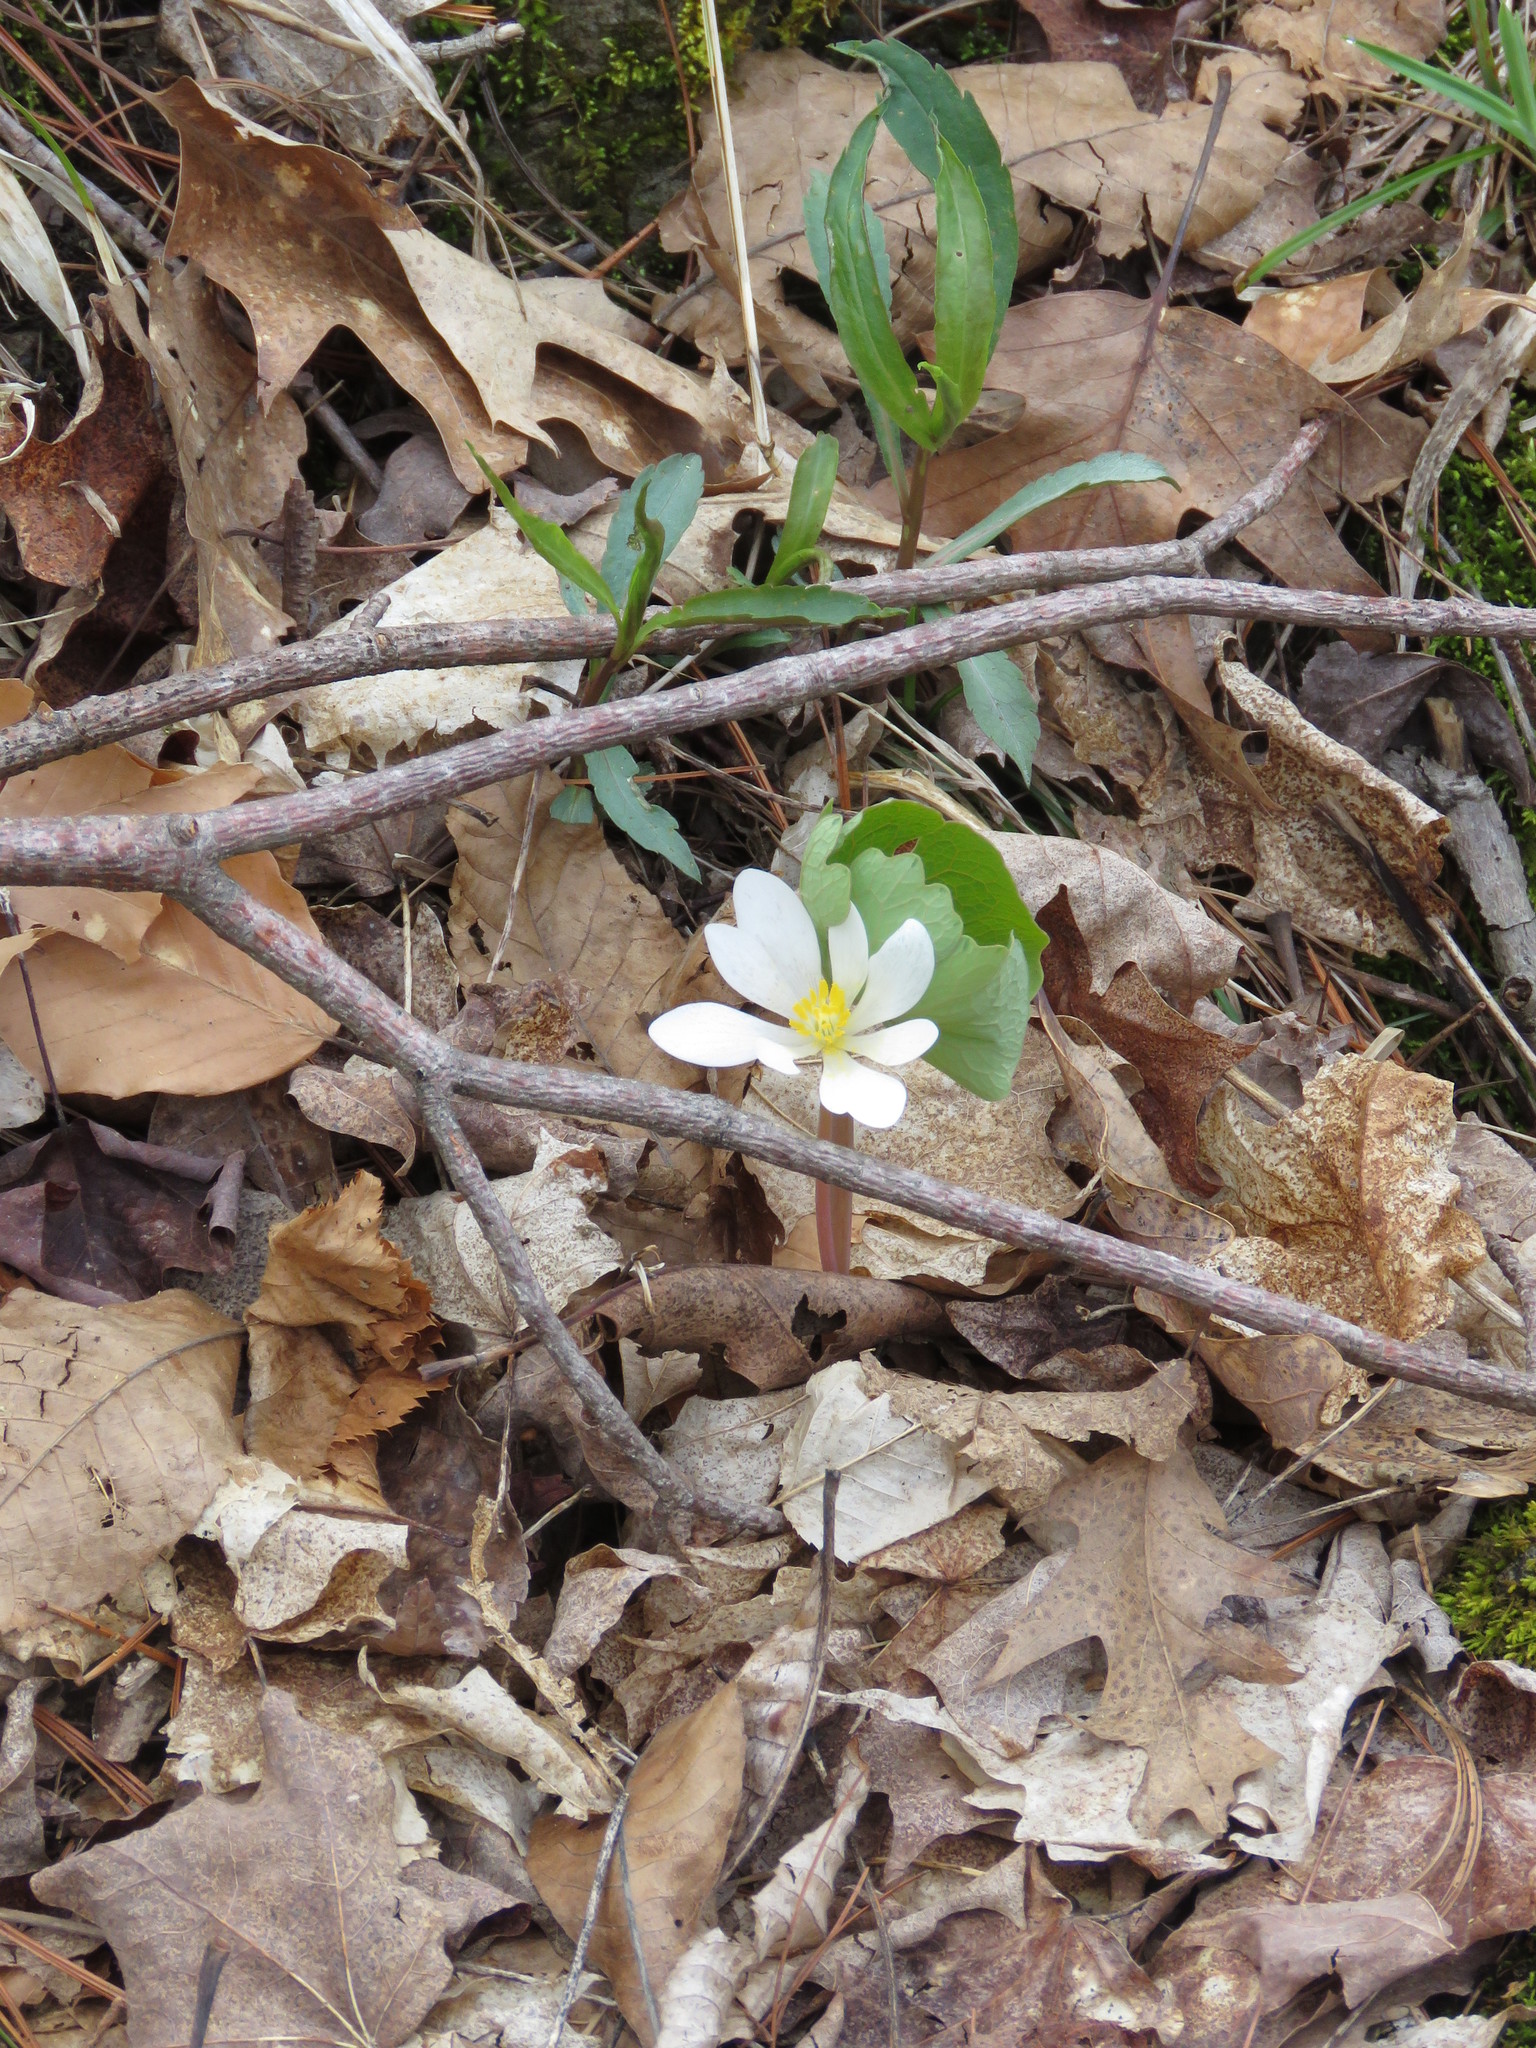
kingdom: Plantae
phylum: Tracheophyta
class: Magnoliopsida
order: Ranunculales
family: Papaveraceae
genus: Sanguinaria
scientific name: Sanguinaria canadensis
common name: Bloodroot
